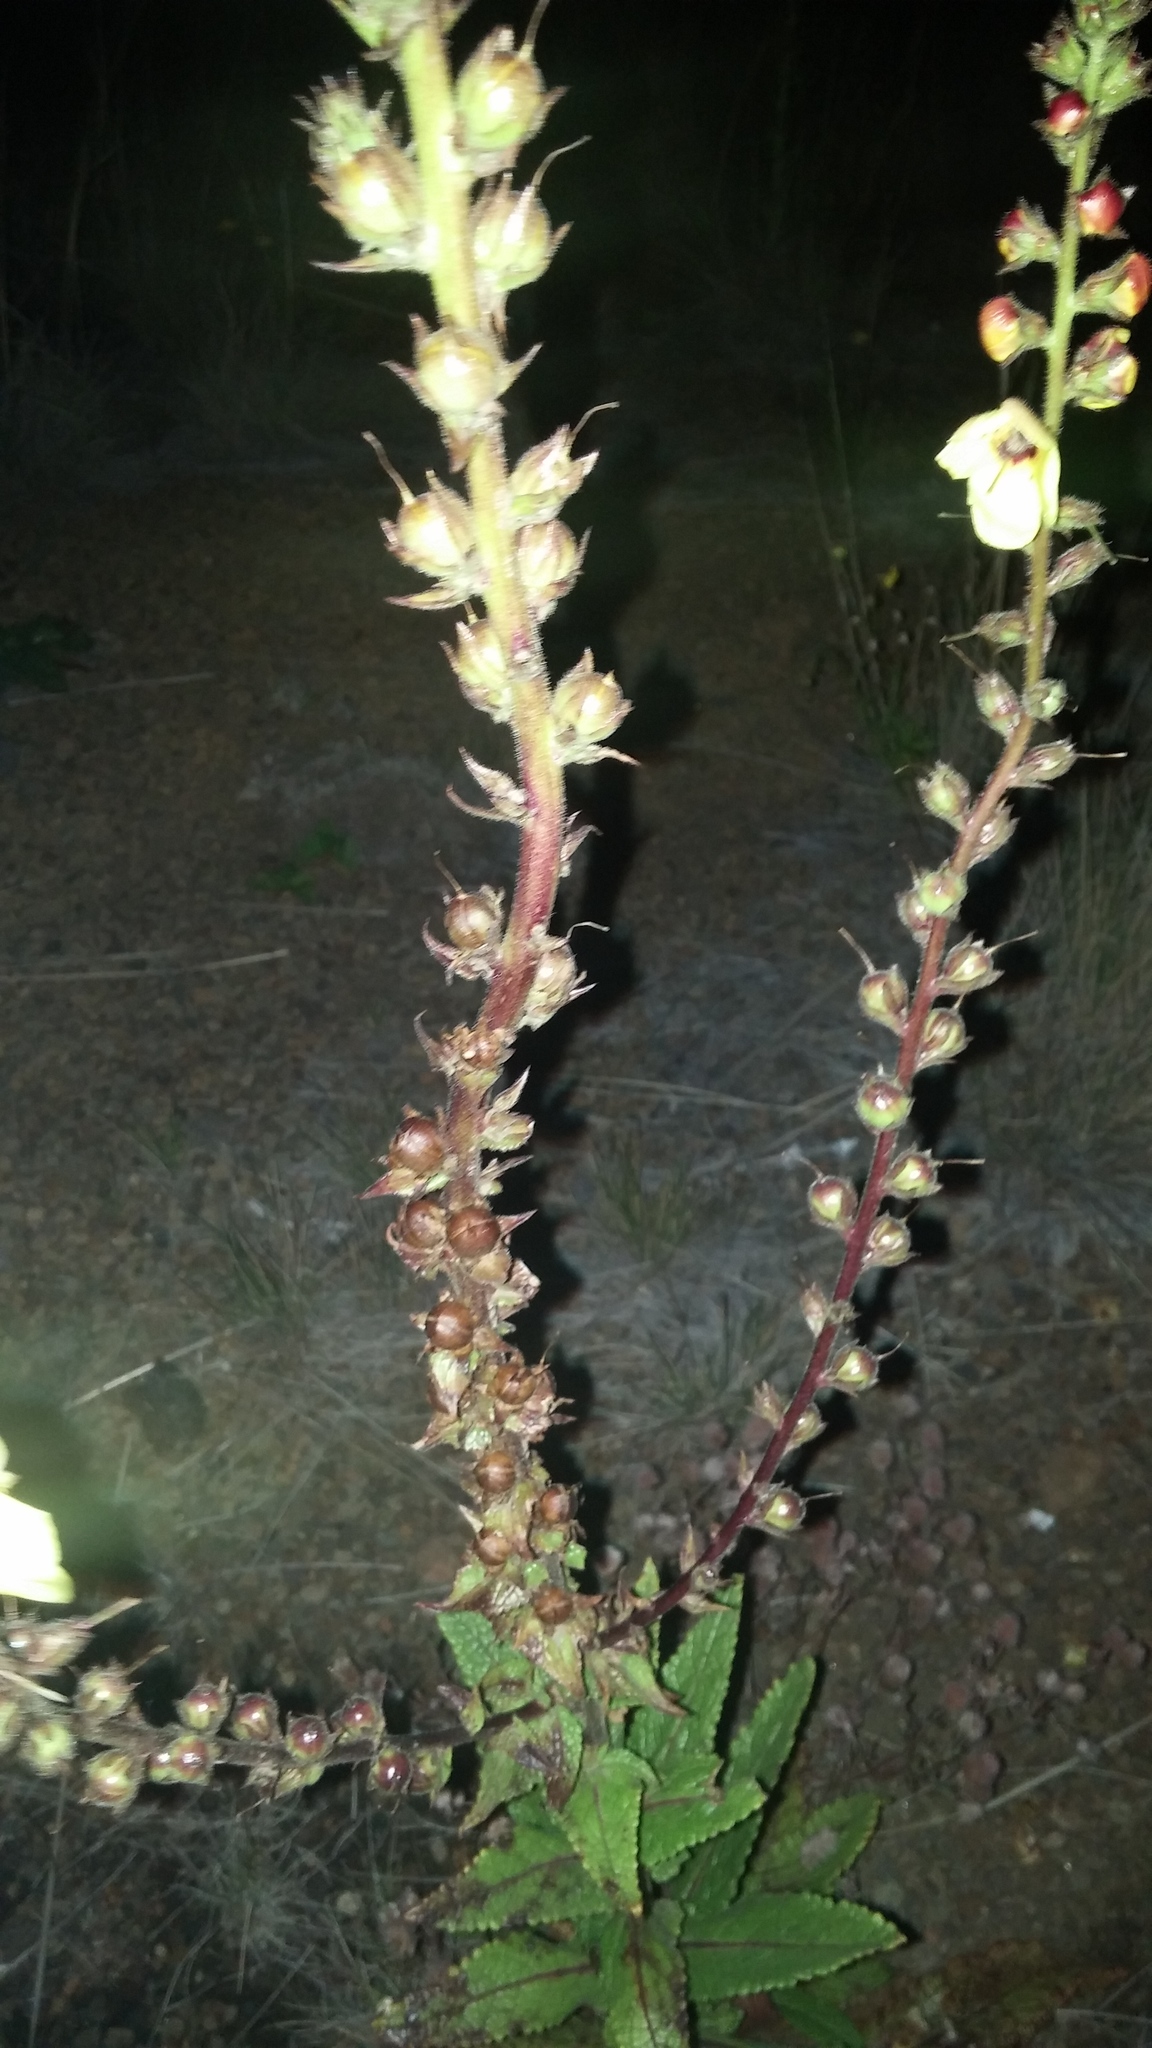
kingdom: Plantae
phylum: Tracheophyta
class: Magnoliopsida
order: Lamiales
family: Scrophulariaceae
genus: Verbascum
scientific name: Verbascum virgatum
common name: Twiggy mullein
